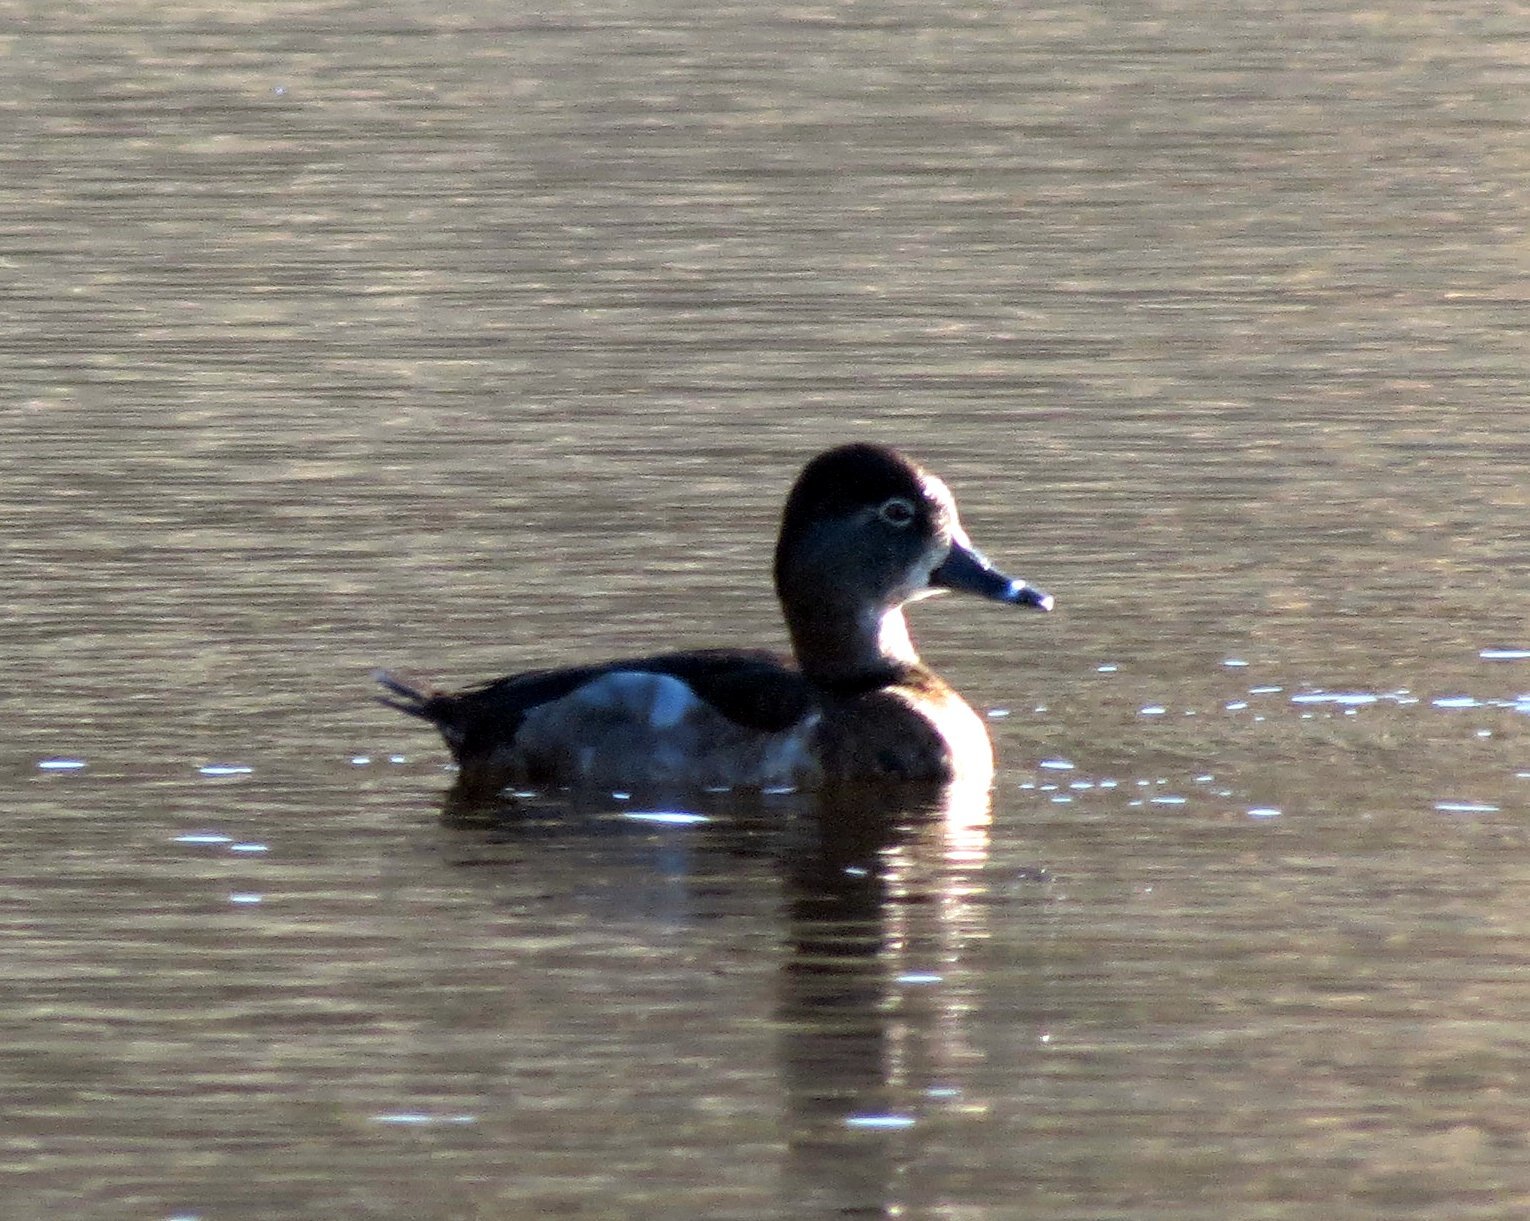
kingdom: Animalia
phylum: Chordata
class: Aves
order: Anseriformes
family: Anatidae
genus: Aythya
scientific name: Aythya collaris
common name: Ring-necked duck
